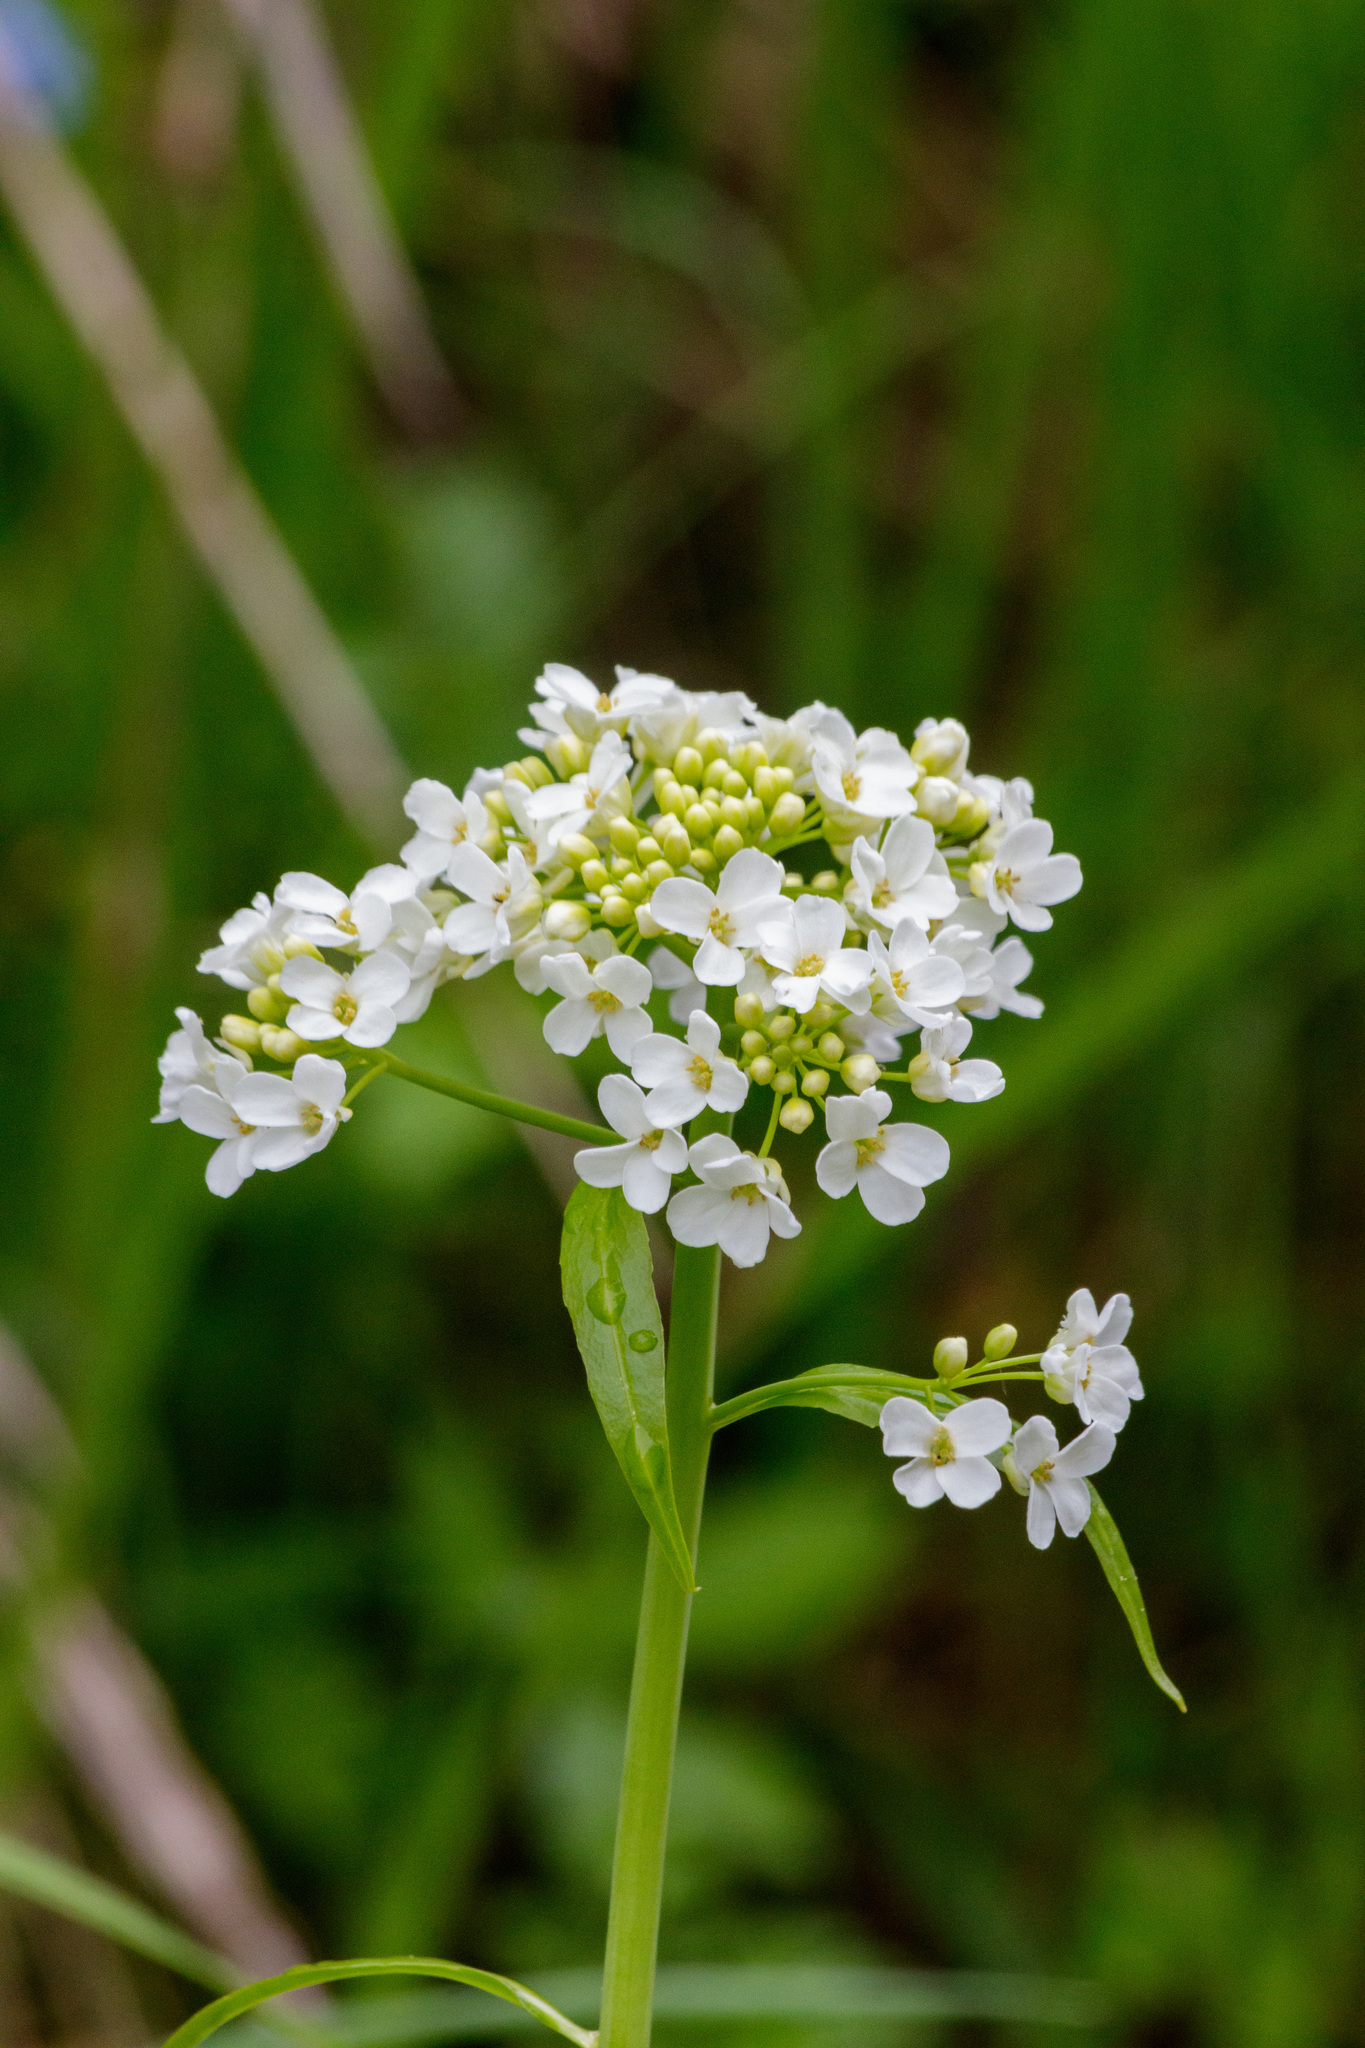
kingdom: Plantae
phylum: Tracheophyta
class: Magnoliopsida
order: Brassicales
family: Brassicaceae
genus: Eutrema
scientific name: Eutrema integrifolium
